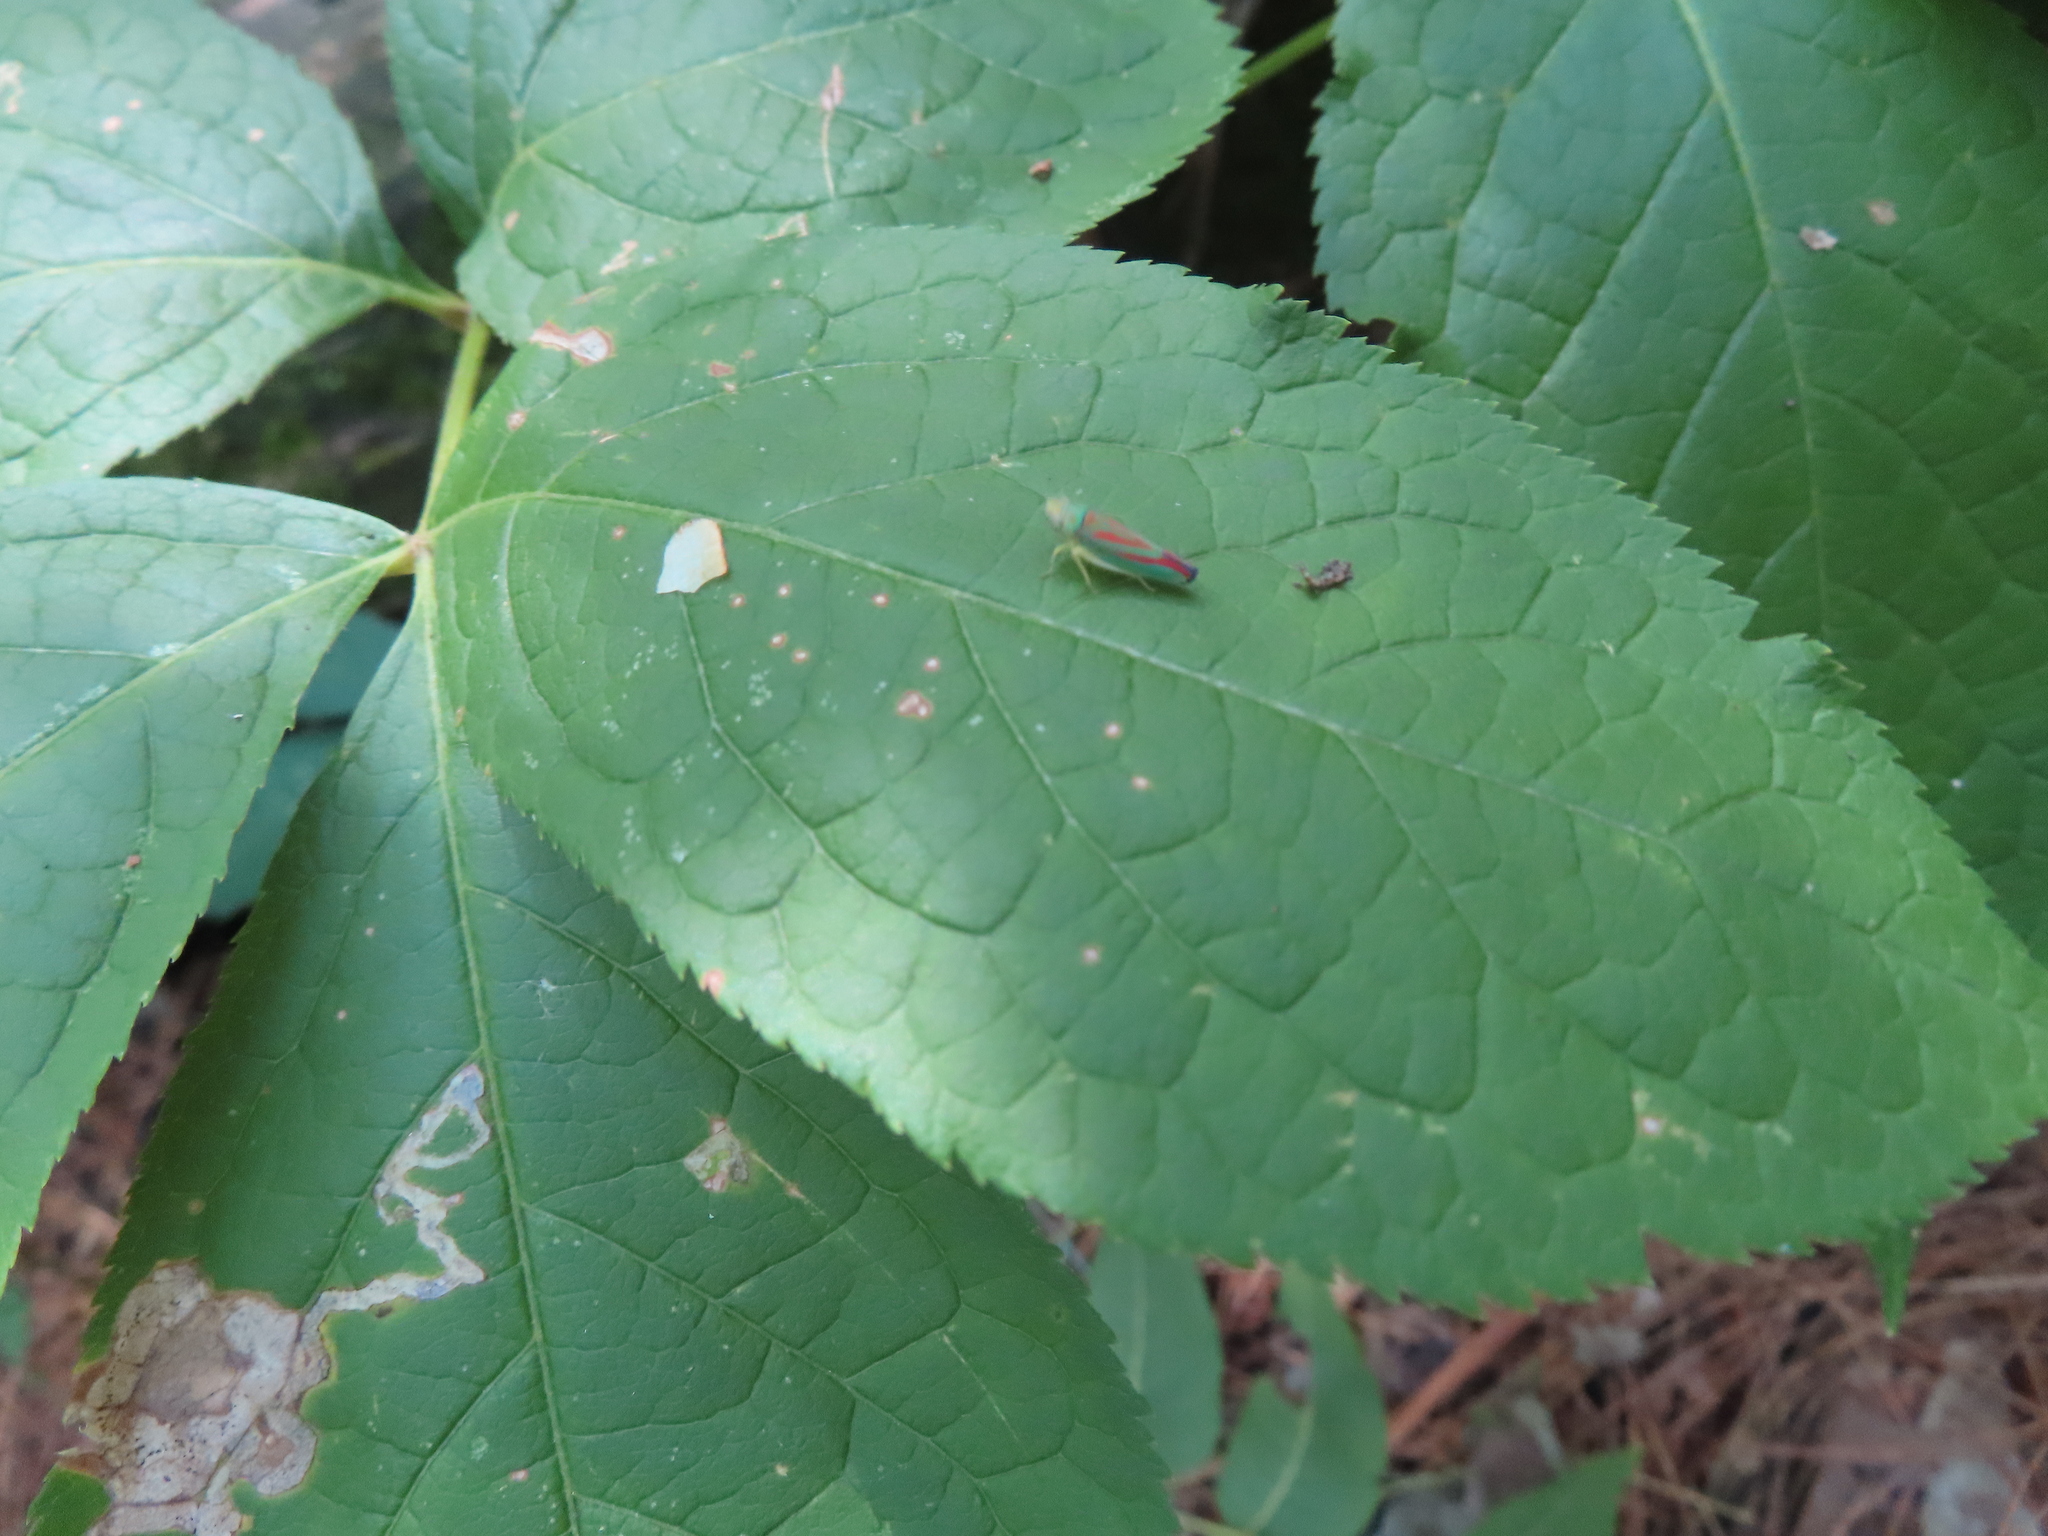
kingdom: Animalia
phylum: Arthropoda
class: Insecta
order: Hemiptera
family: Cicadellidae
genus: Graphocephala
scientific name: Graphocephala coccinea
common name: Candy-striped leafhopper
